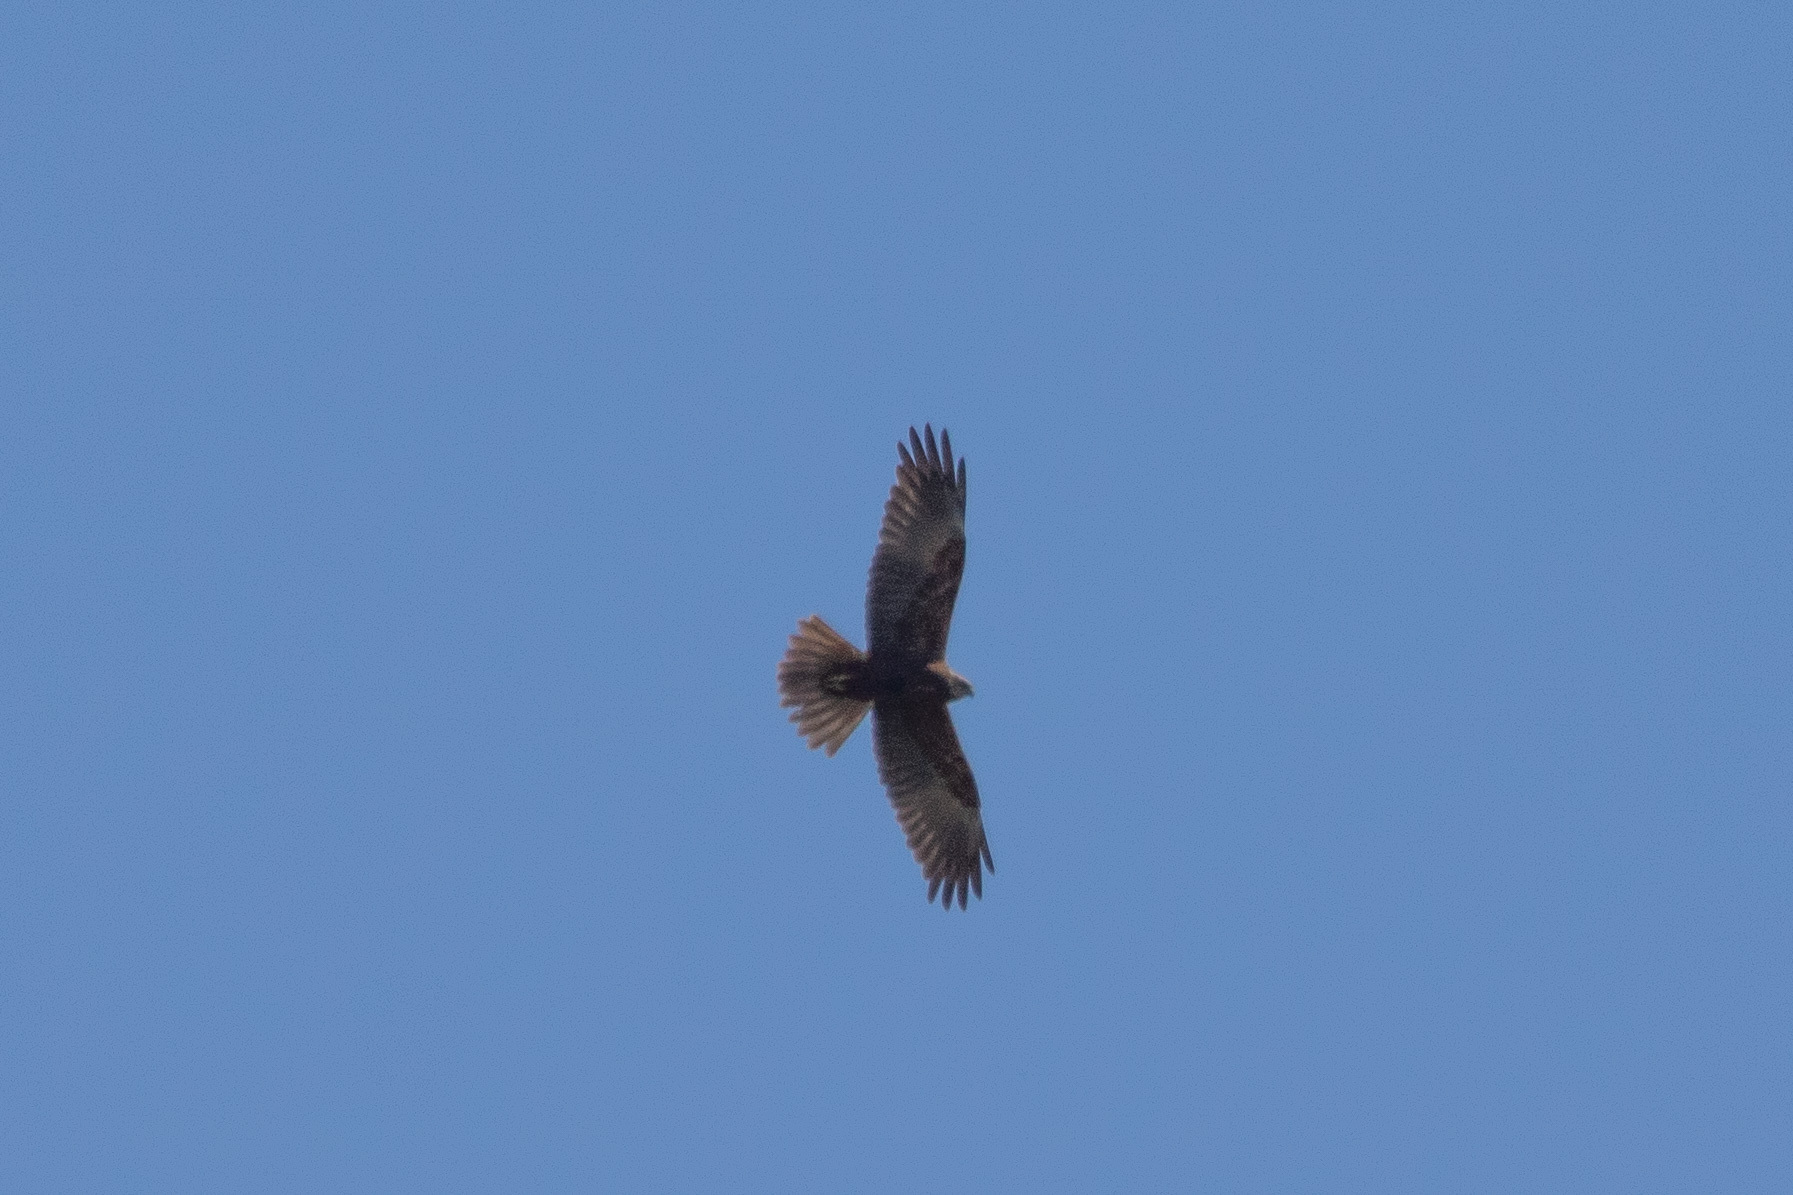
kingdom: Animalia
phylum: Chordata
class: Aves
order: Accipitriformes
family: Accipitridae
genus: Circus
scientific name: Circus aeruginosus
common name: Western marsh harrier
